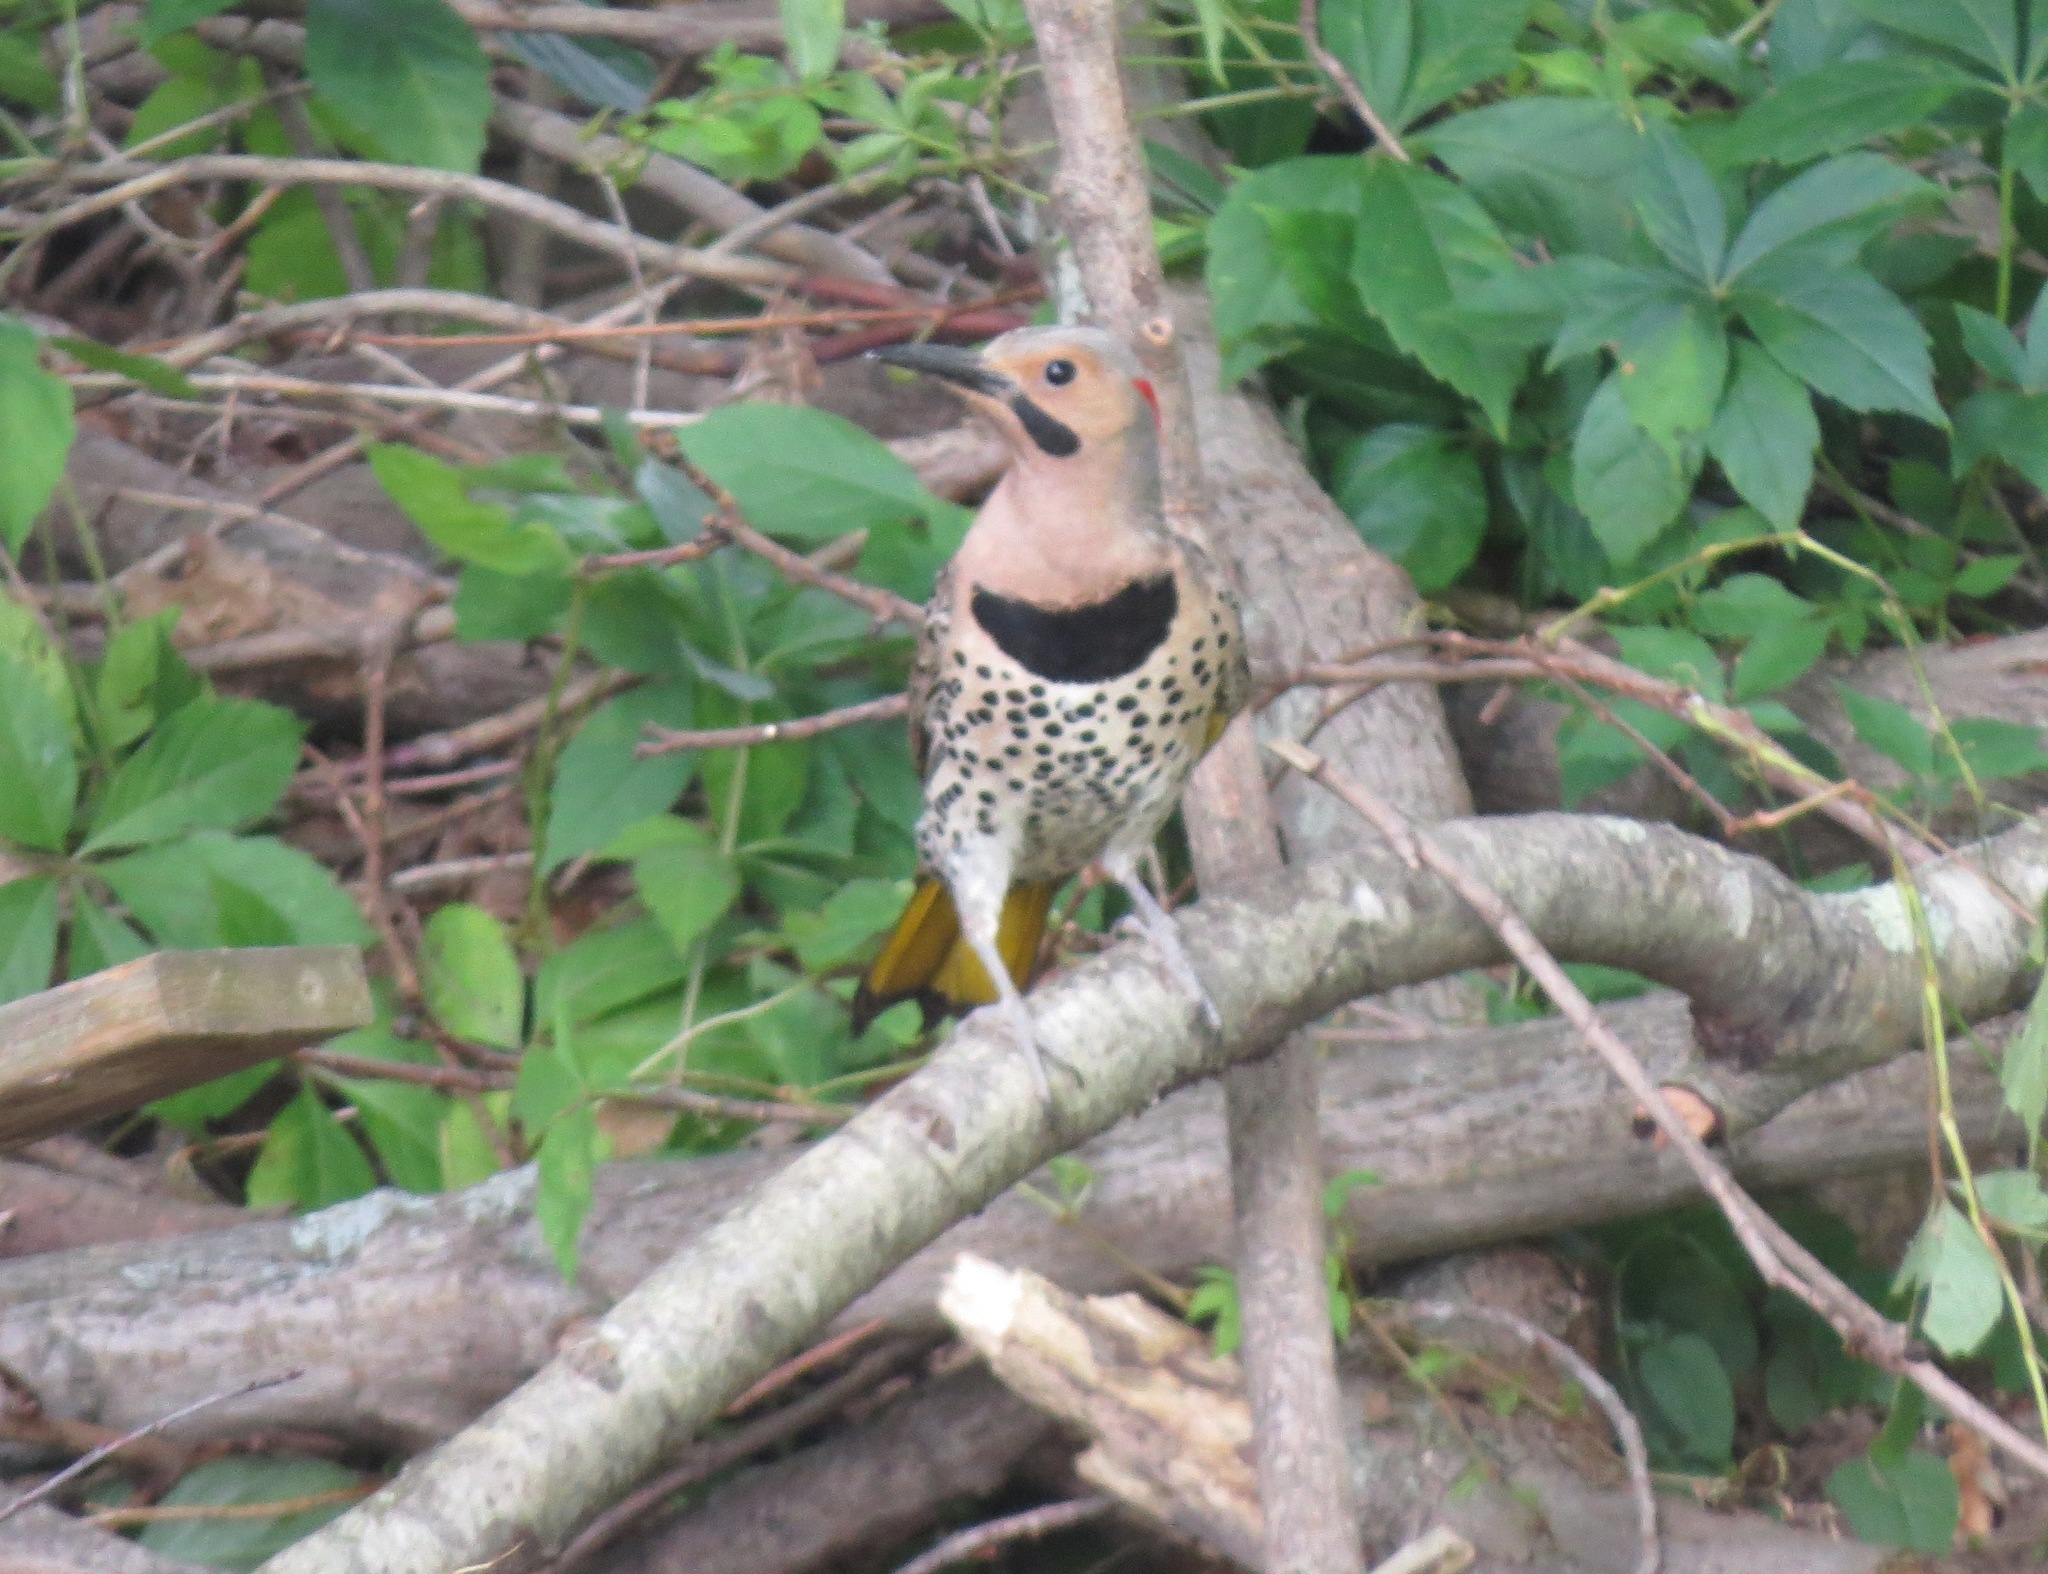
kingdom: Animalia
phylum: Chordata
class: Aves
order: Piciformes
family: Picidae
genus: Colaptes
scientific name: Colaptes auratus
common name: Northern flicker
